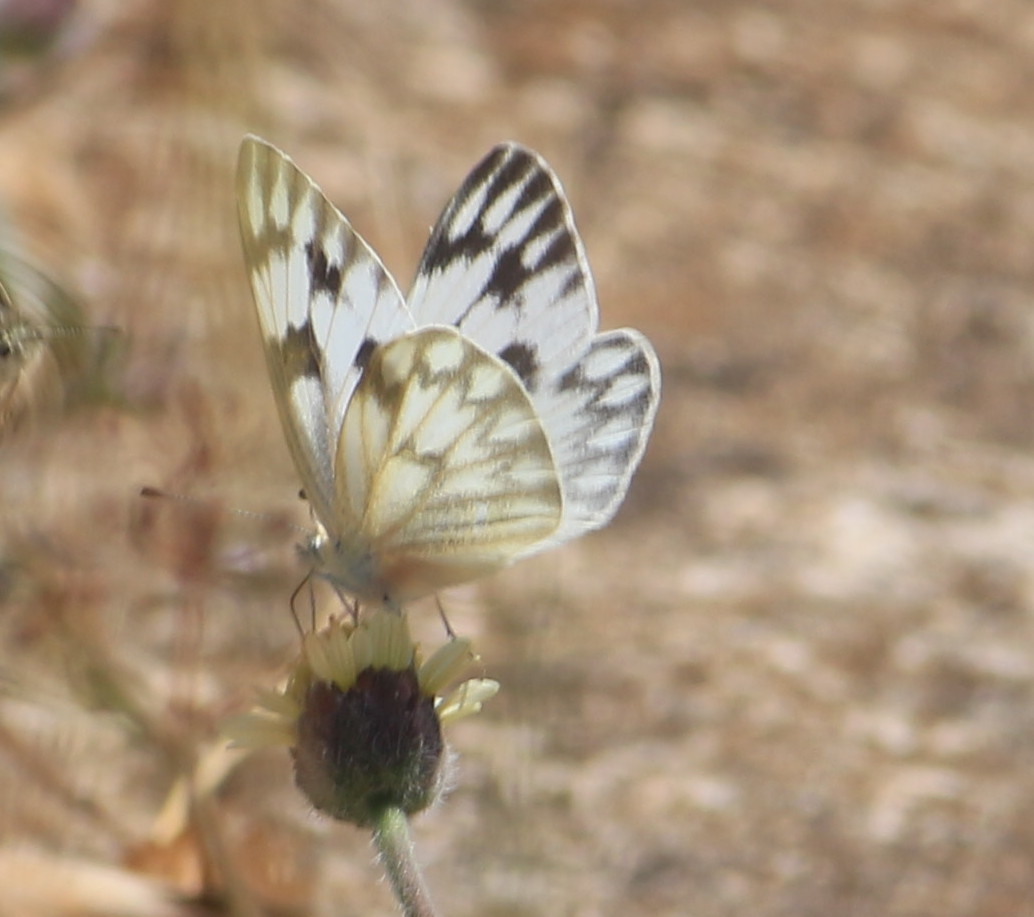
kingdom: Animalia
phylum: Arthropoda
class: Insecta
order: Lepidoptera
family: Pieridae
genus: Pontia
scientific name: Pontia protodice
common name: Checkered white
